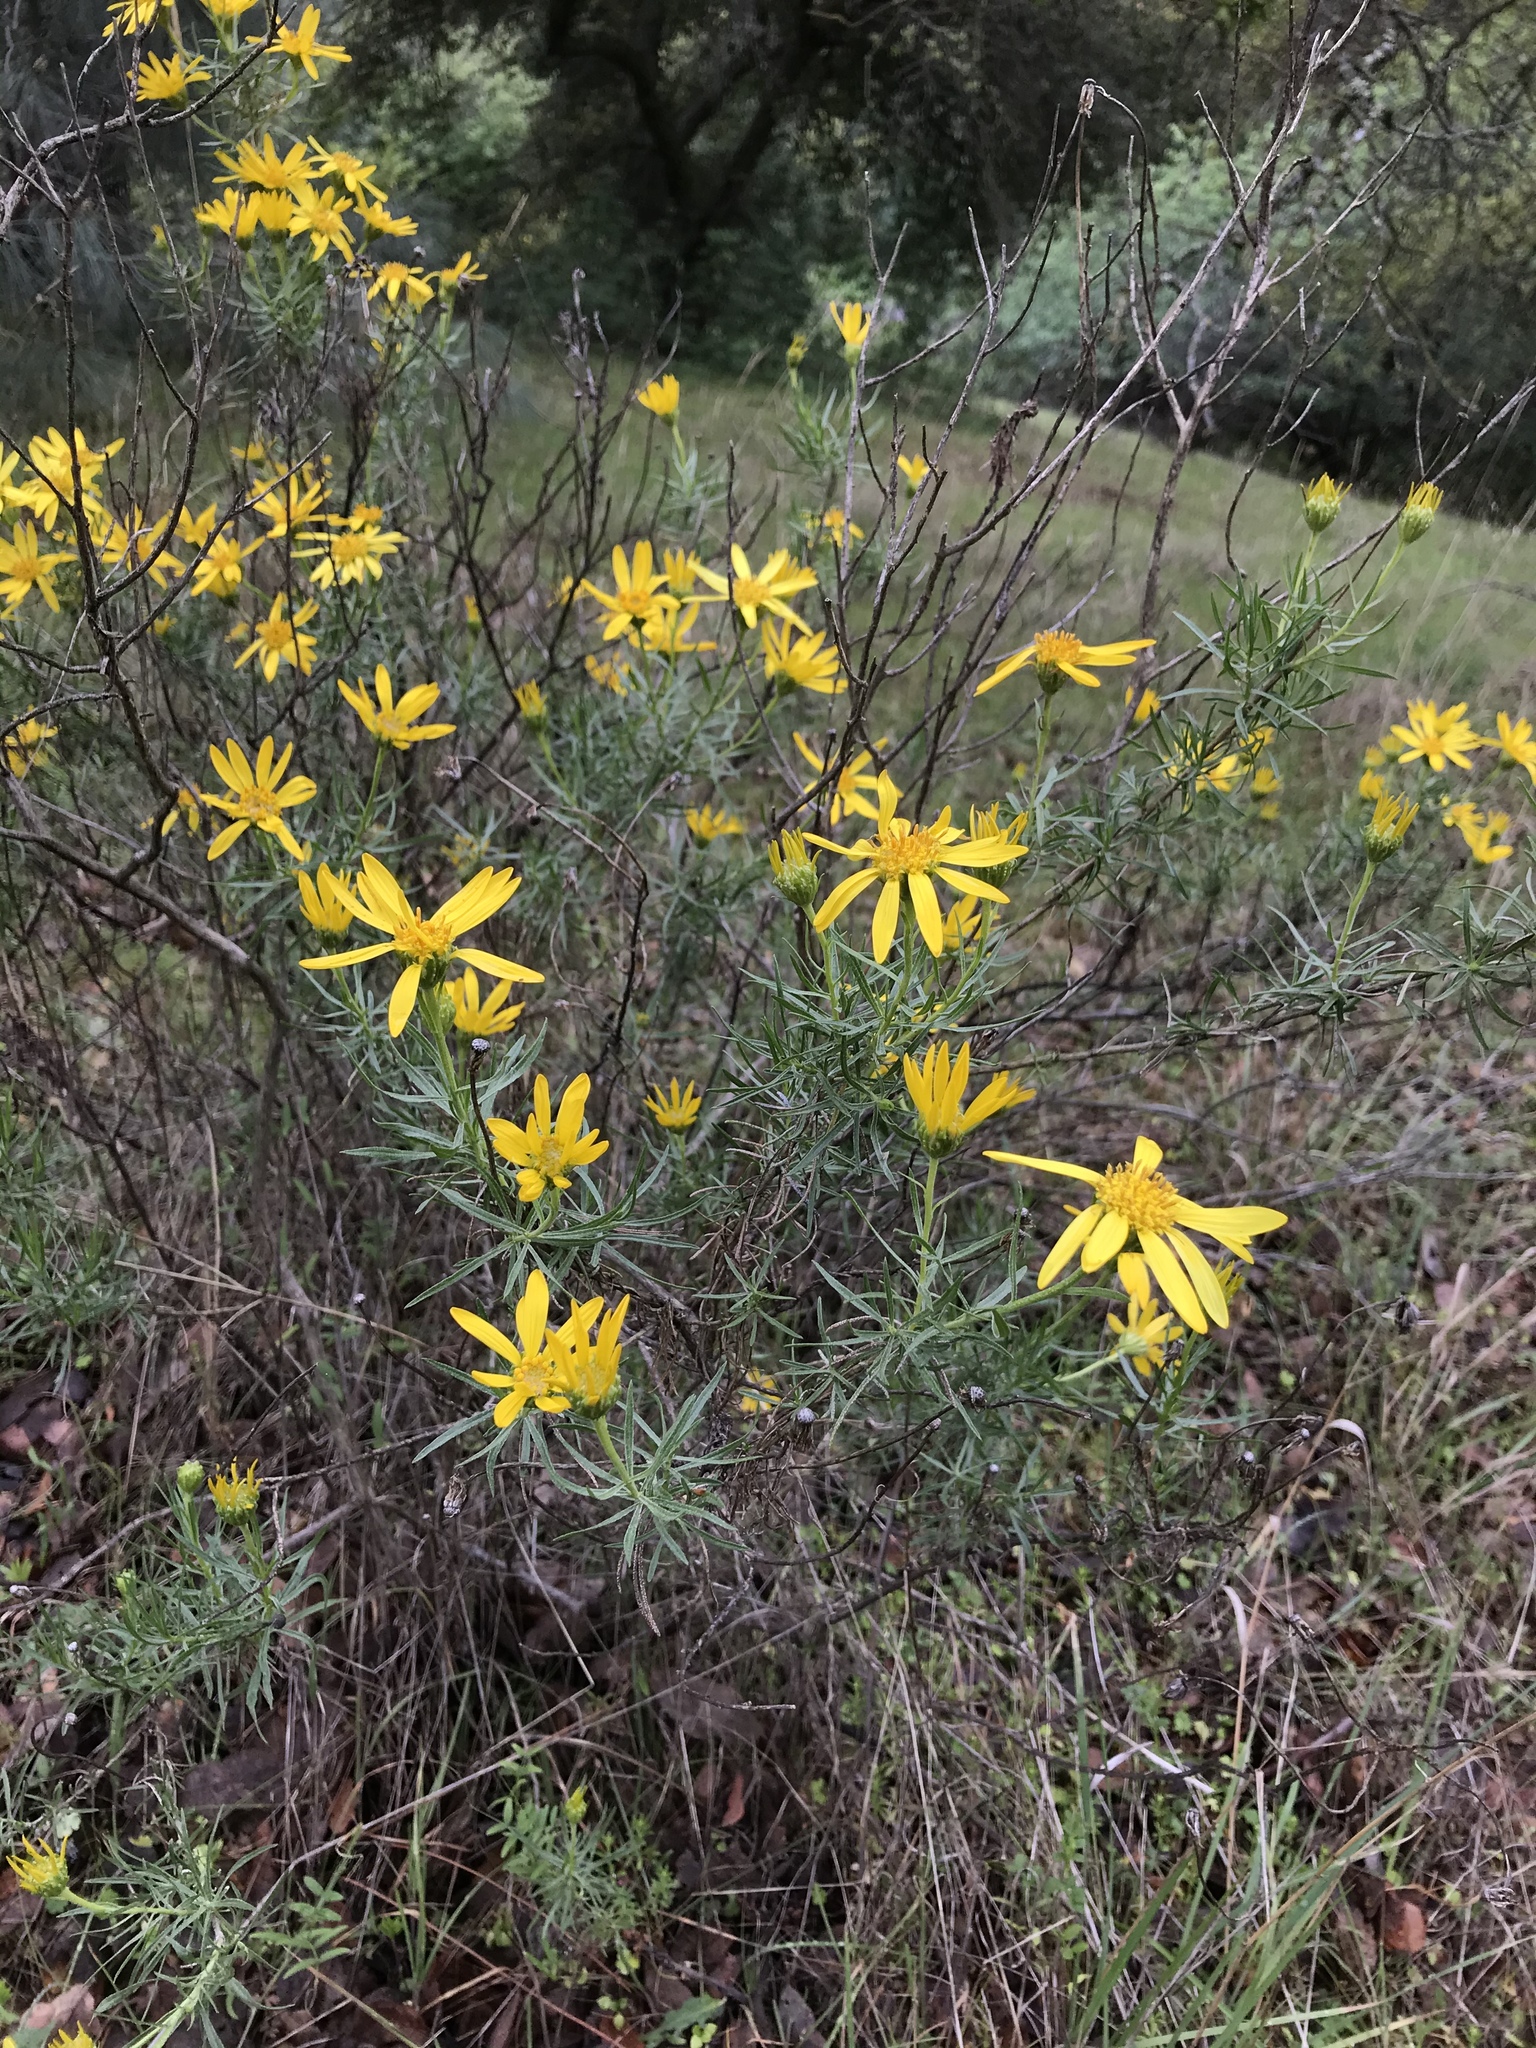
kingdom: Plantae
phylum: Tracheophyta
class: Magnoliopsida
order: Asterales
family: Asteraceae
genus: Ericameria
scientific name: Ericameria linearifolia
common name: Interior goldenbush
